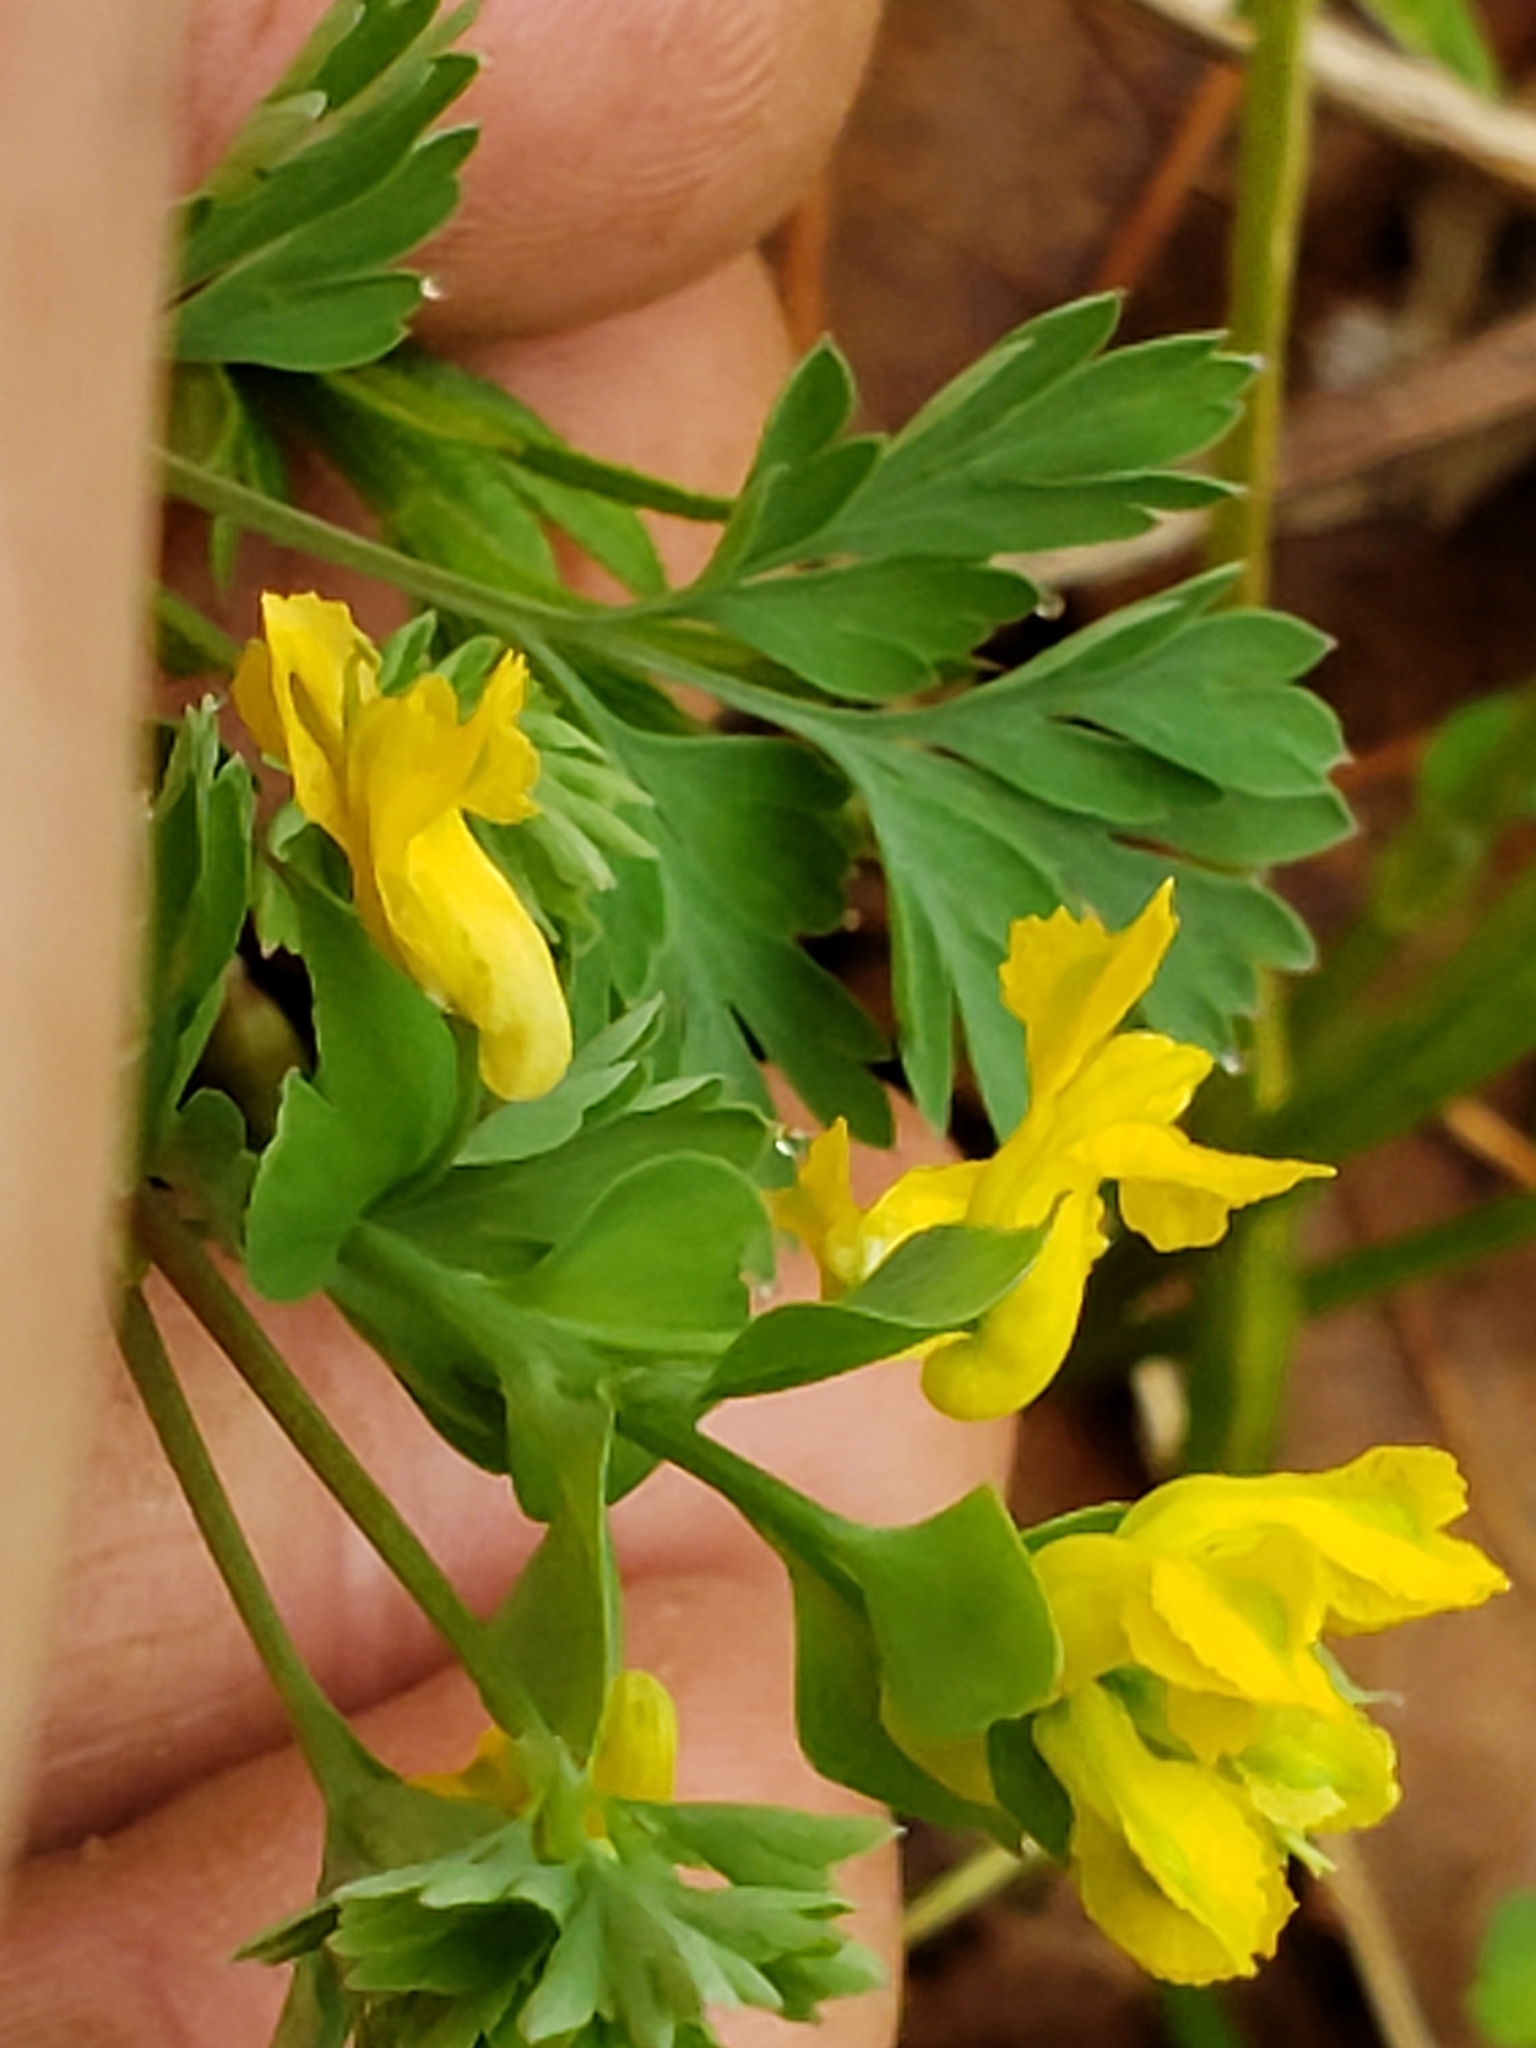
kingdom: Plantae
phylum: Tracheophyta
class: Magnoliopsida
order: Ranunculales
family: Papaveraceae
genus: Corydalis
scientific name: Corydalis flavula
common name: Yellow corydalis
